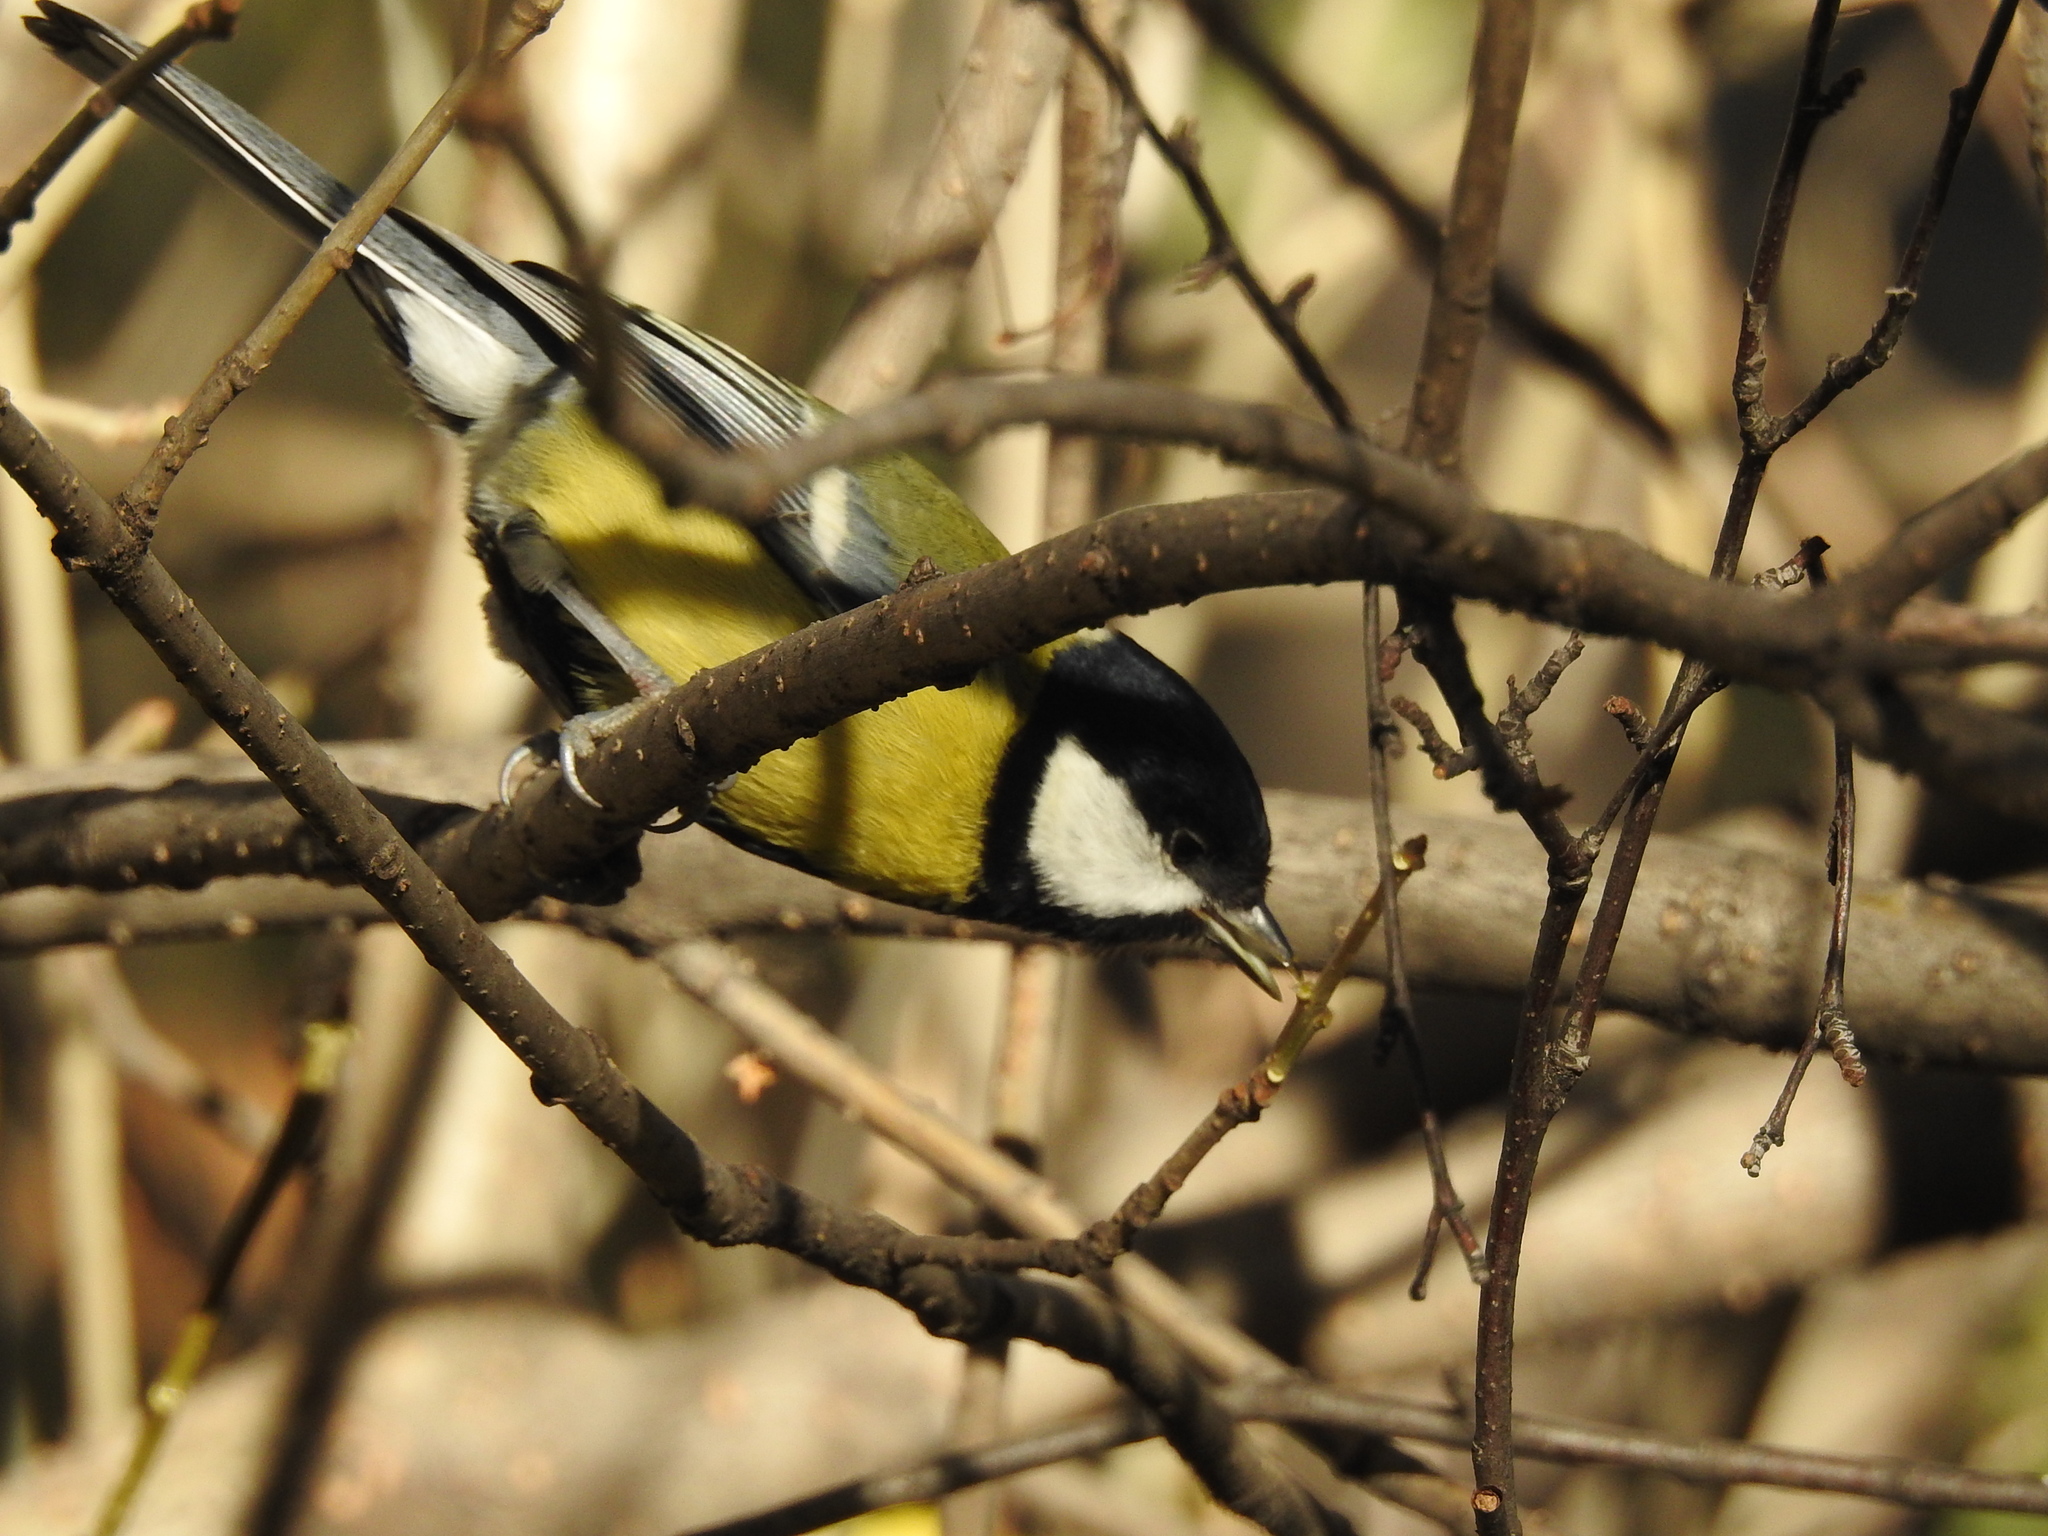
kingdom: Animalia
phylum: Chordata
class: Aves
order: Passeriformes
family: Paridae
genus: Parus
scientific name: Parus major
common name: Great tit
